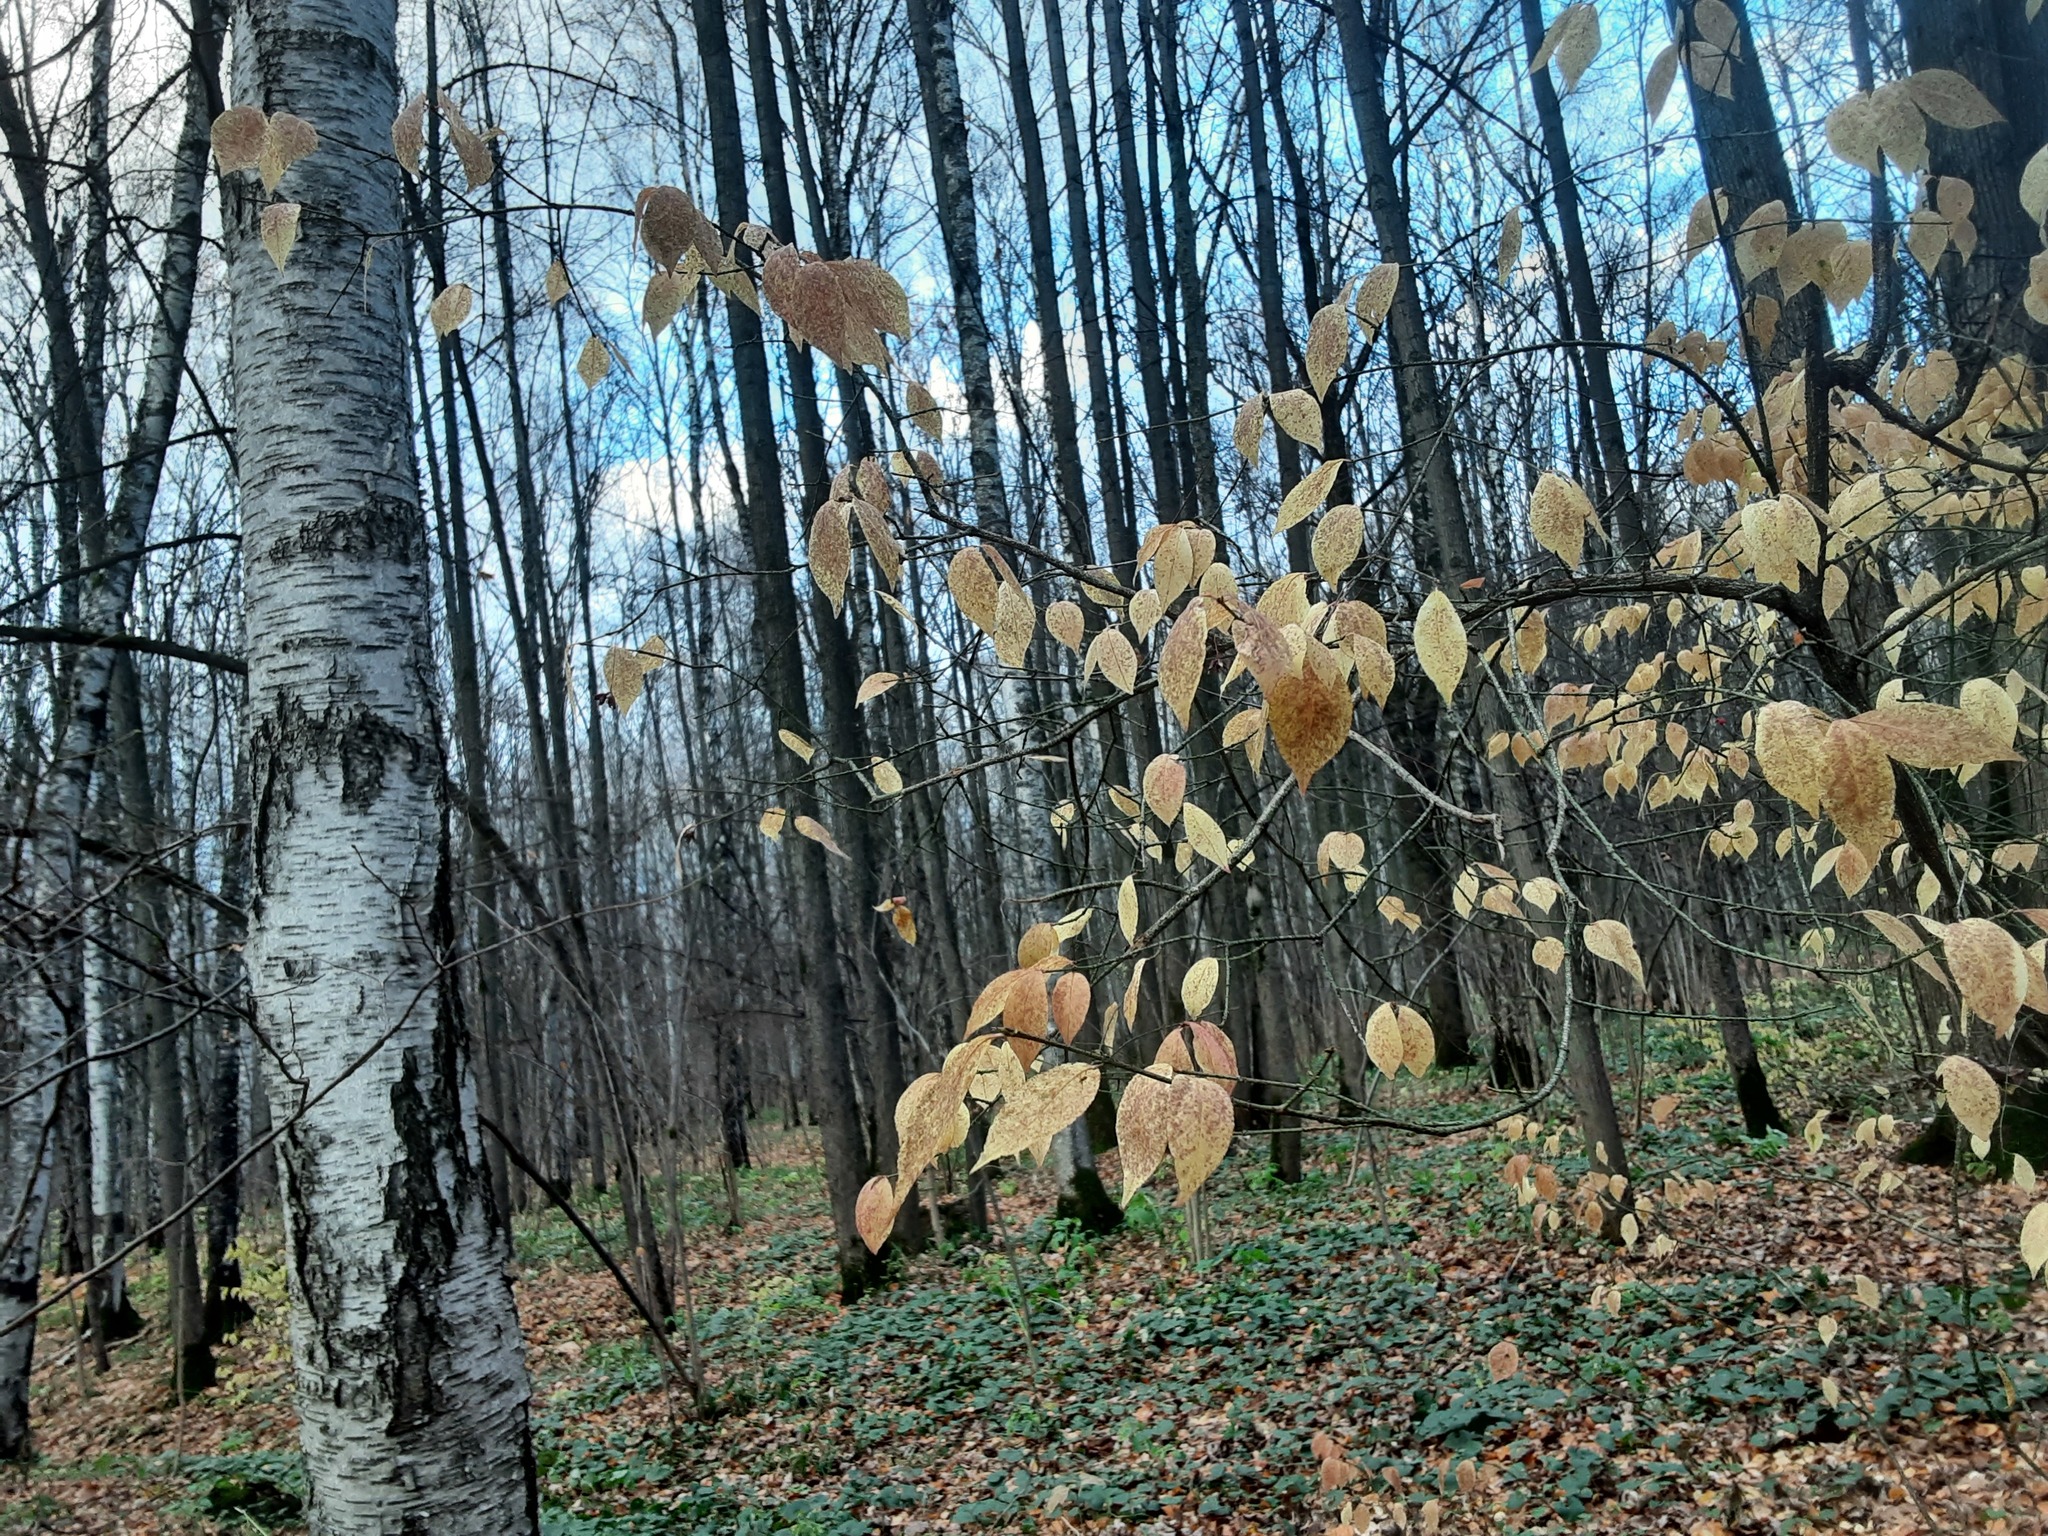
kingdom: Plantae
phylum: Tracheophyta
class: Magnoliopsida
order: Celastrales
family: Celastraceae
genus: Euonymus
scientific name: Euonymus verrucosus
